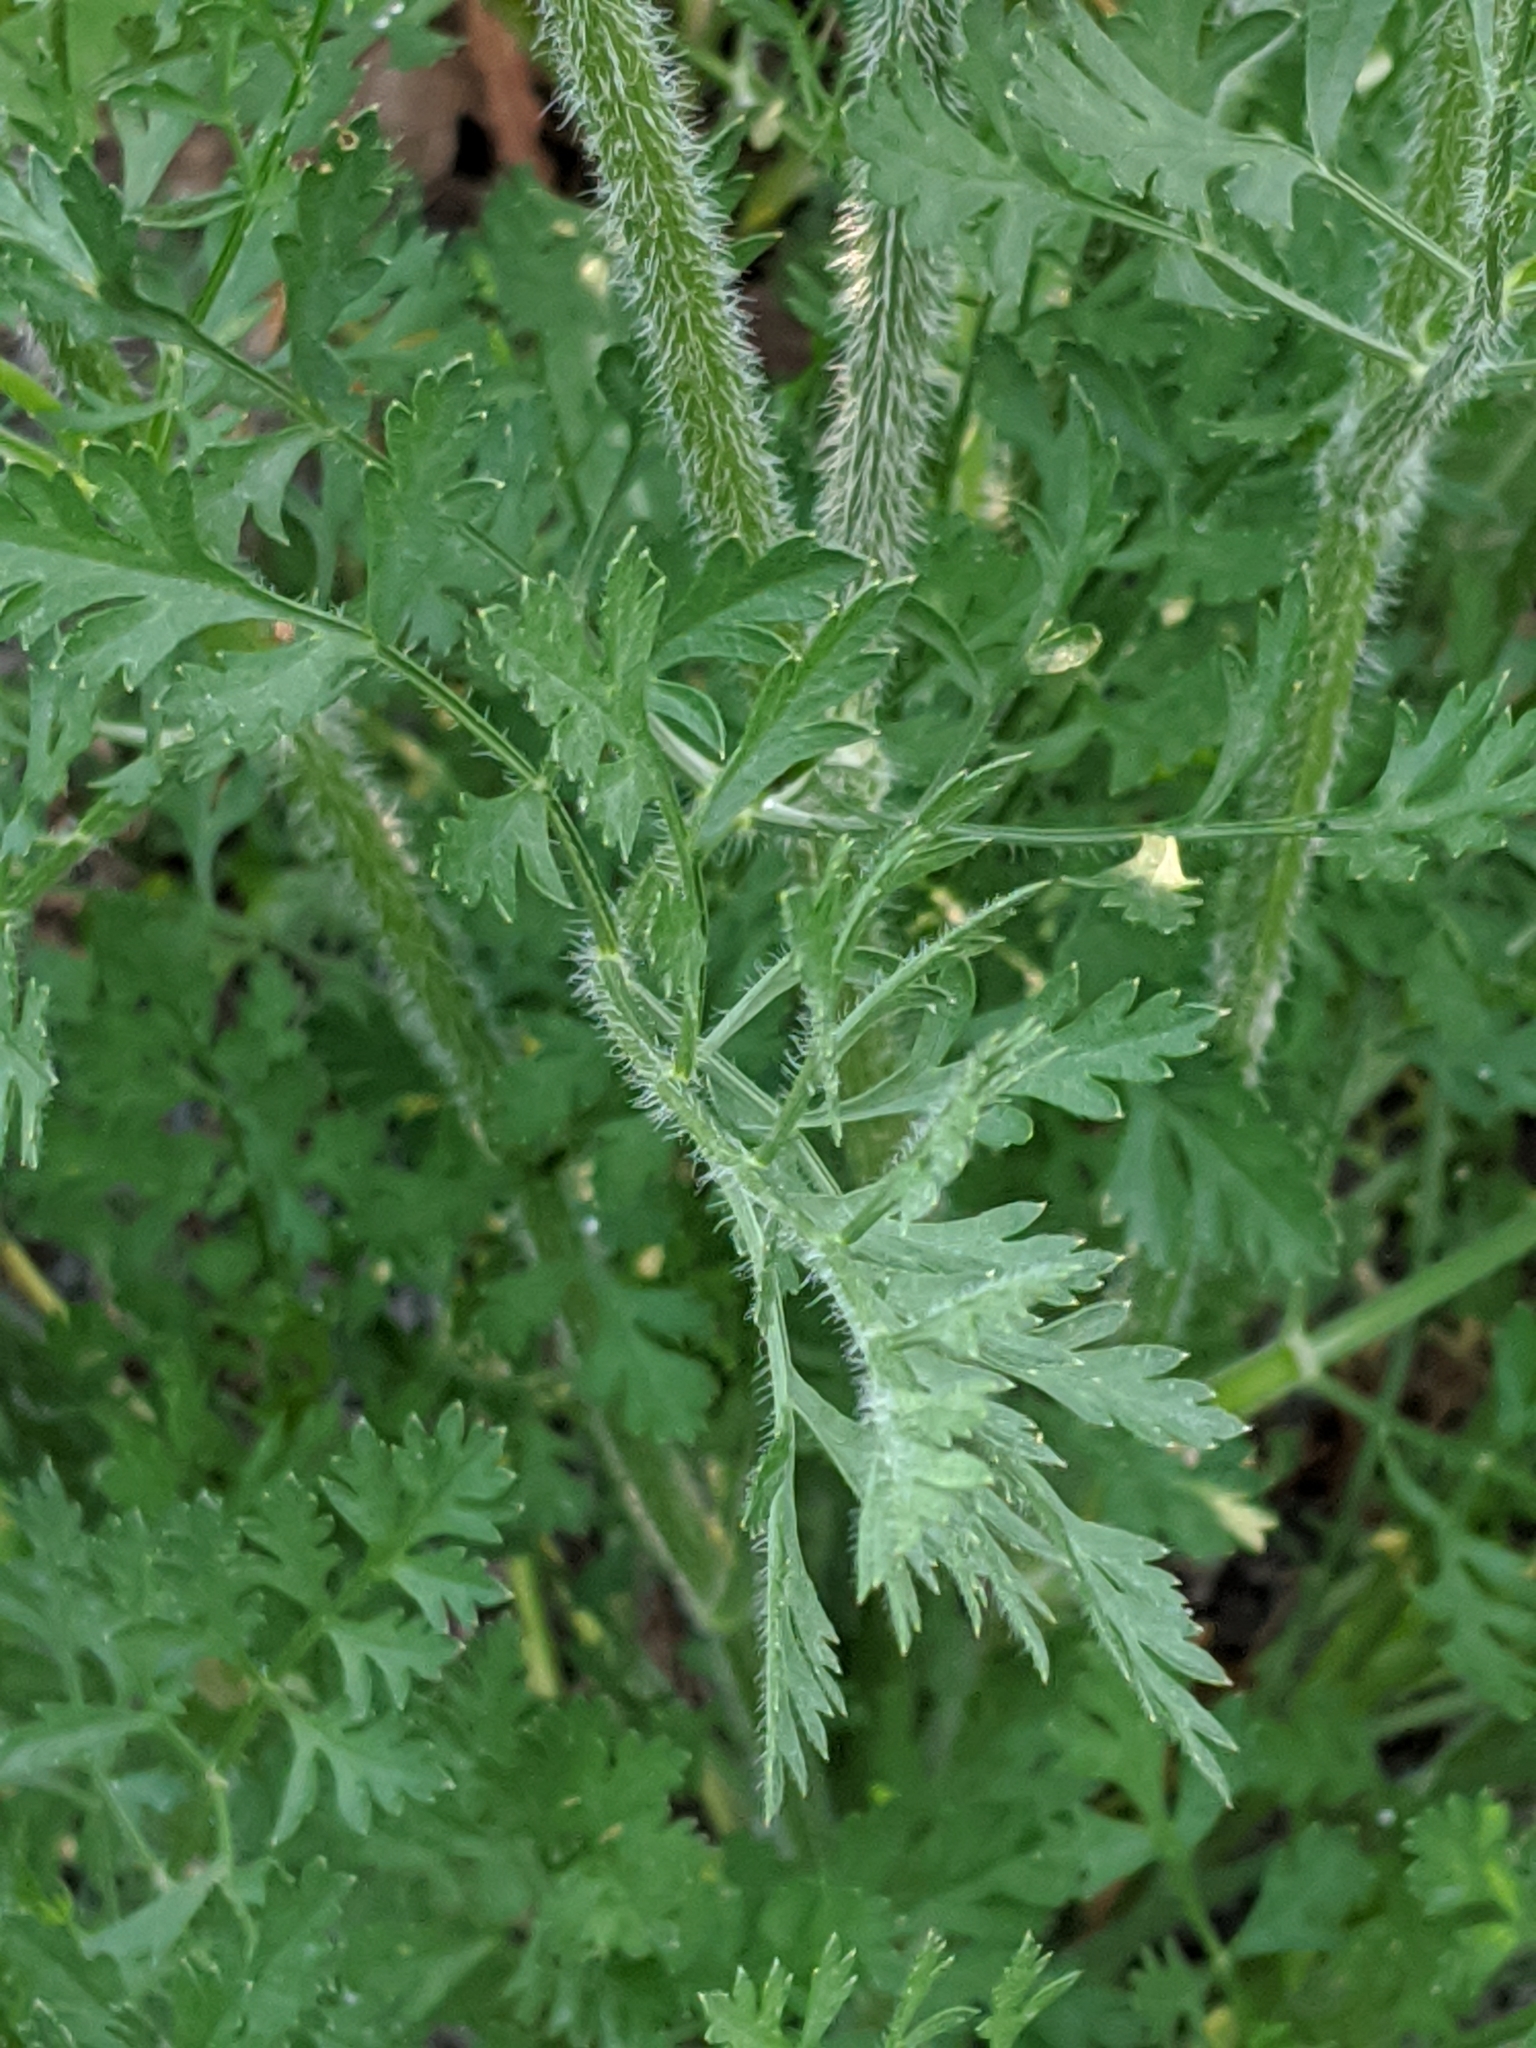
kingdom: Plantae
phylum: Tracheophyta
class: Magnoliopsida
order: Apiales
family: Apiaceae
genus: Daucus
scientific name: Daucus carota
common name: Wild carrot
